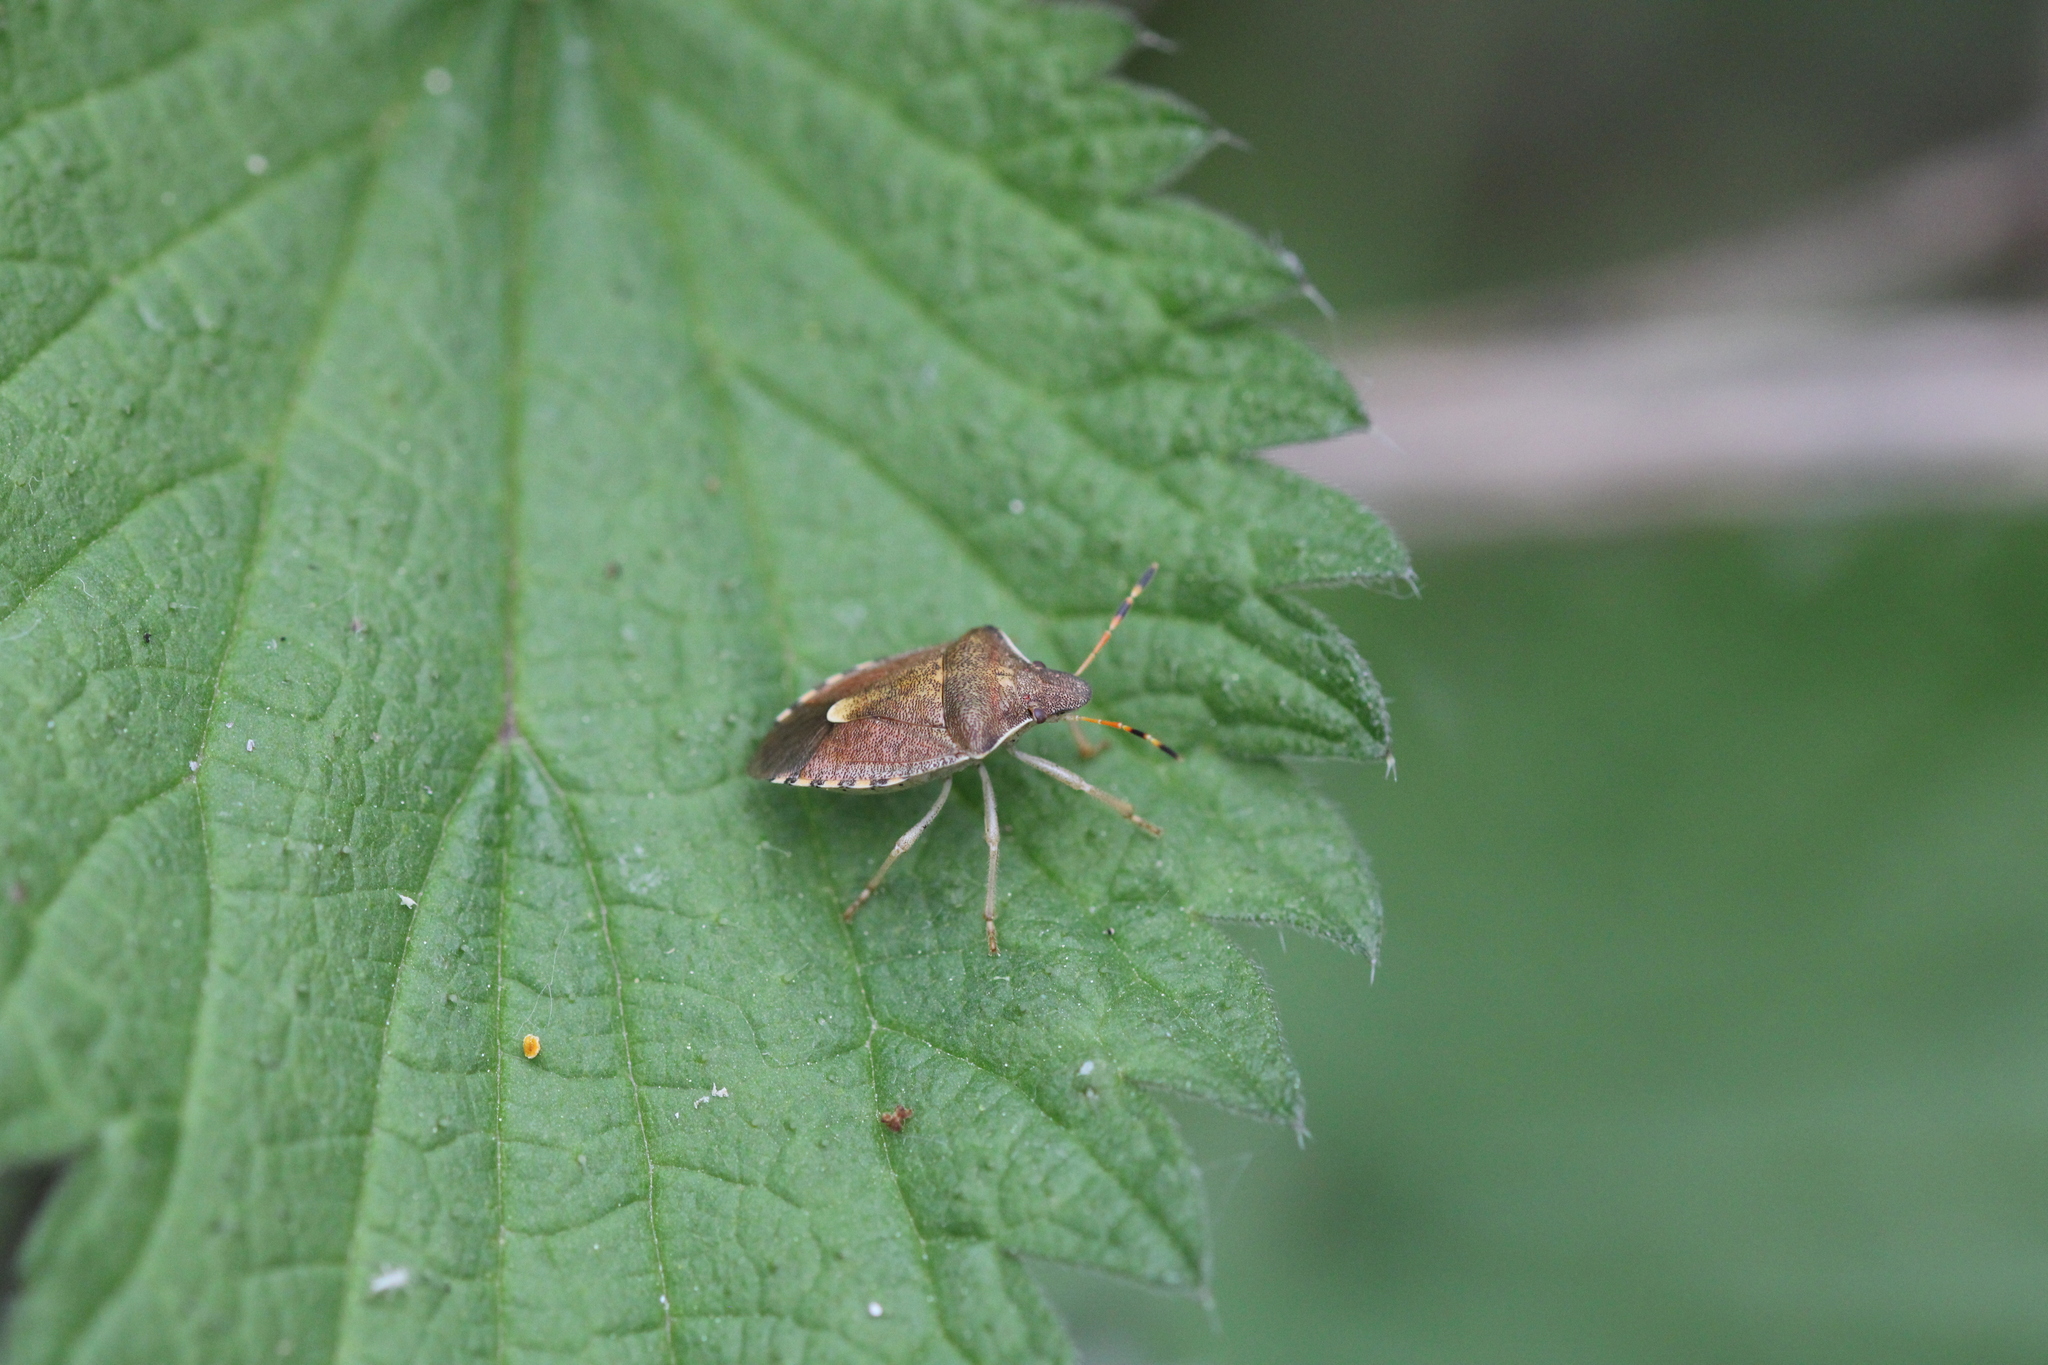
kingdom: Animalia
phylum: Arthropoda
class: Insecta
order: Hemiptera
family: Pentatomidae
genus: Holcostethus
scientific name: Holcostethus strictus
